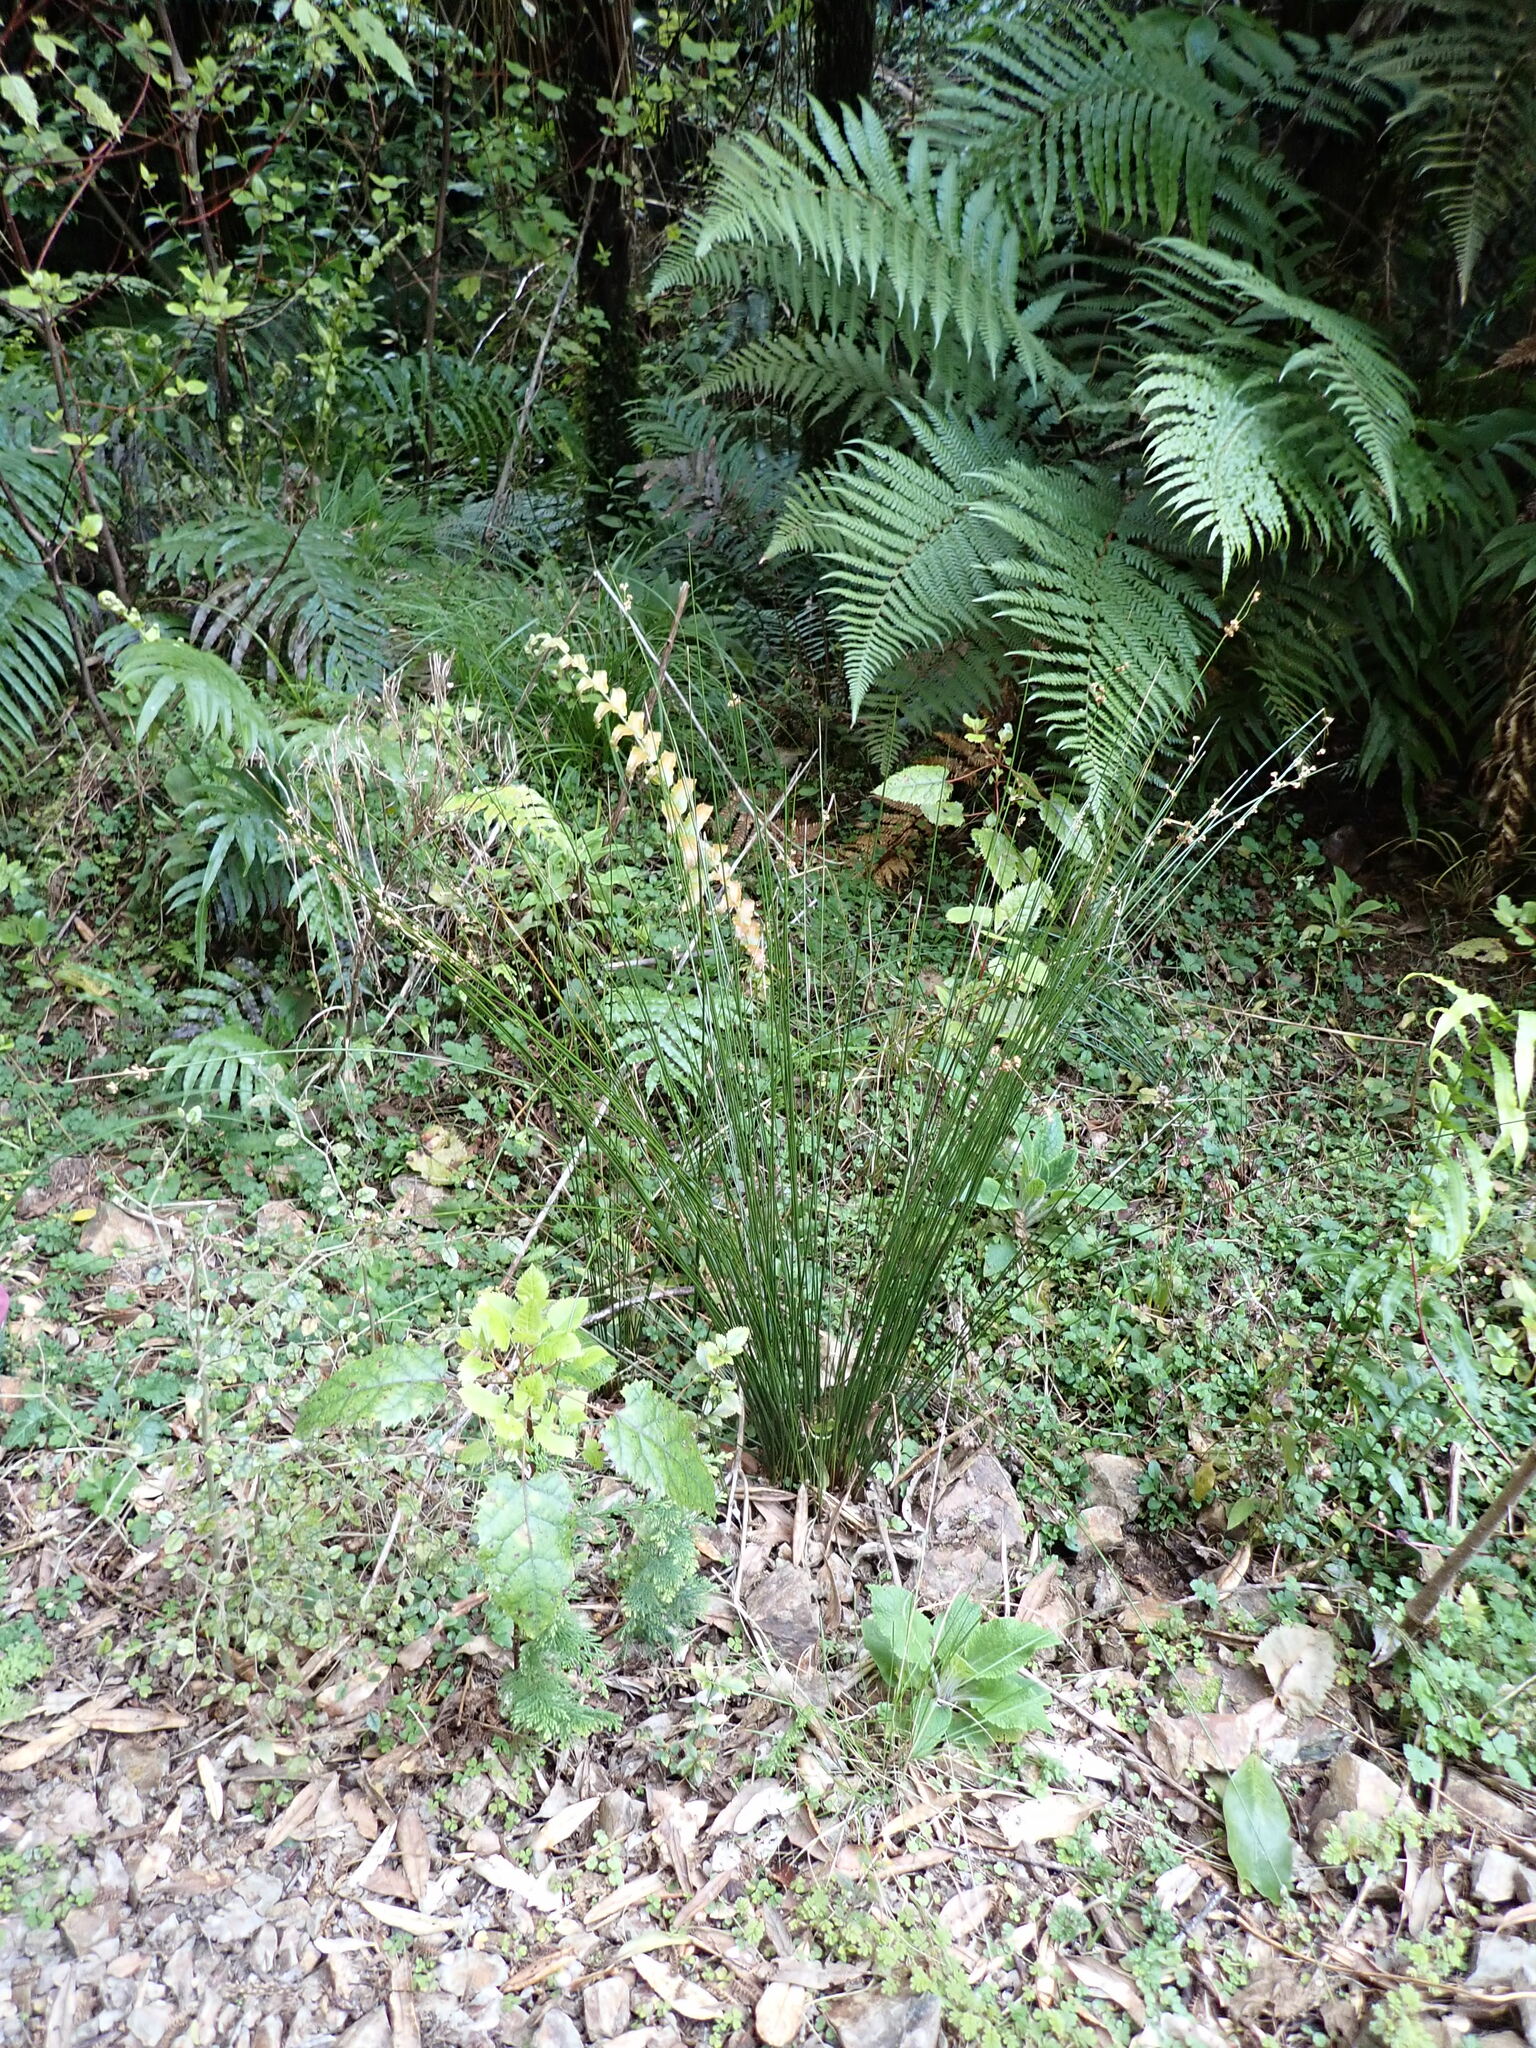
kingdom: Plantae
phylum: Tracheophyta
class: Liliopsida
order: Poales
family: Juncaceae
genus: Juncus
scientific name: Juncus edgariae
